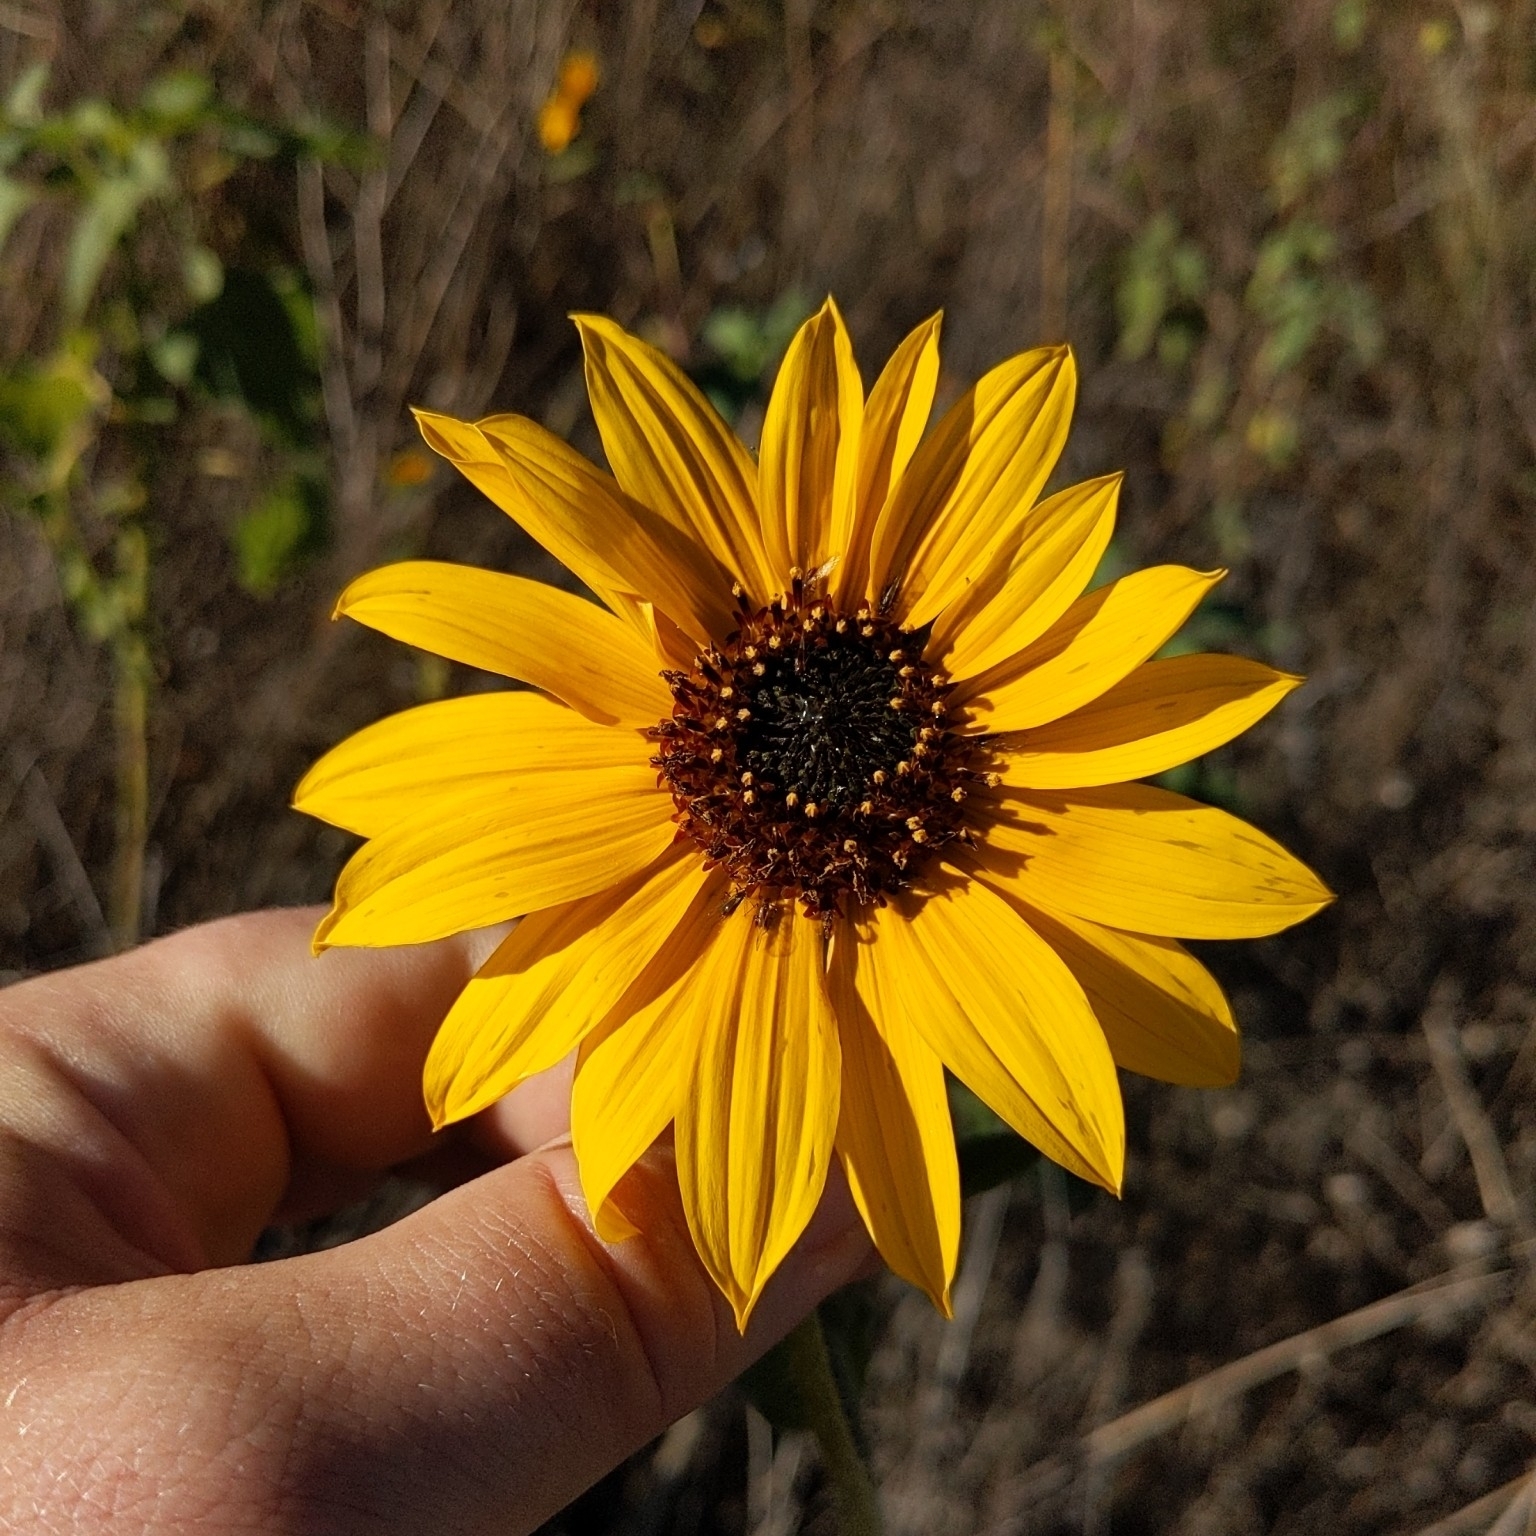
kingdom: Plantae
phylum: Tracheophyta
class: Magnoliopsida
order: Asterales
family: Asteraceae
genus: Helianthus
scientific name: Helianthus annuus
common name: Sunflower
